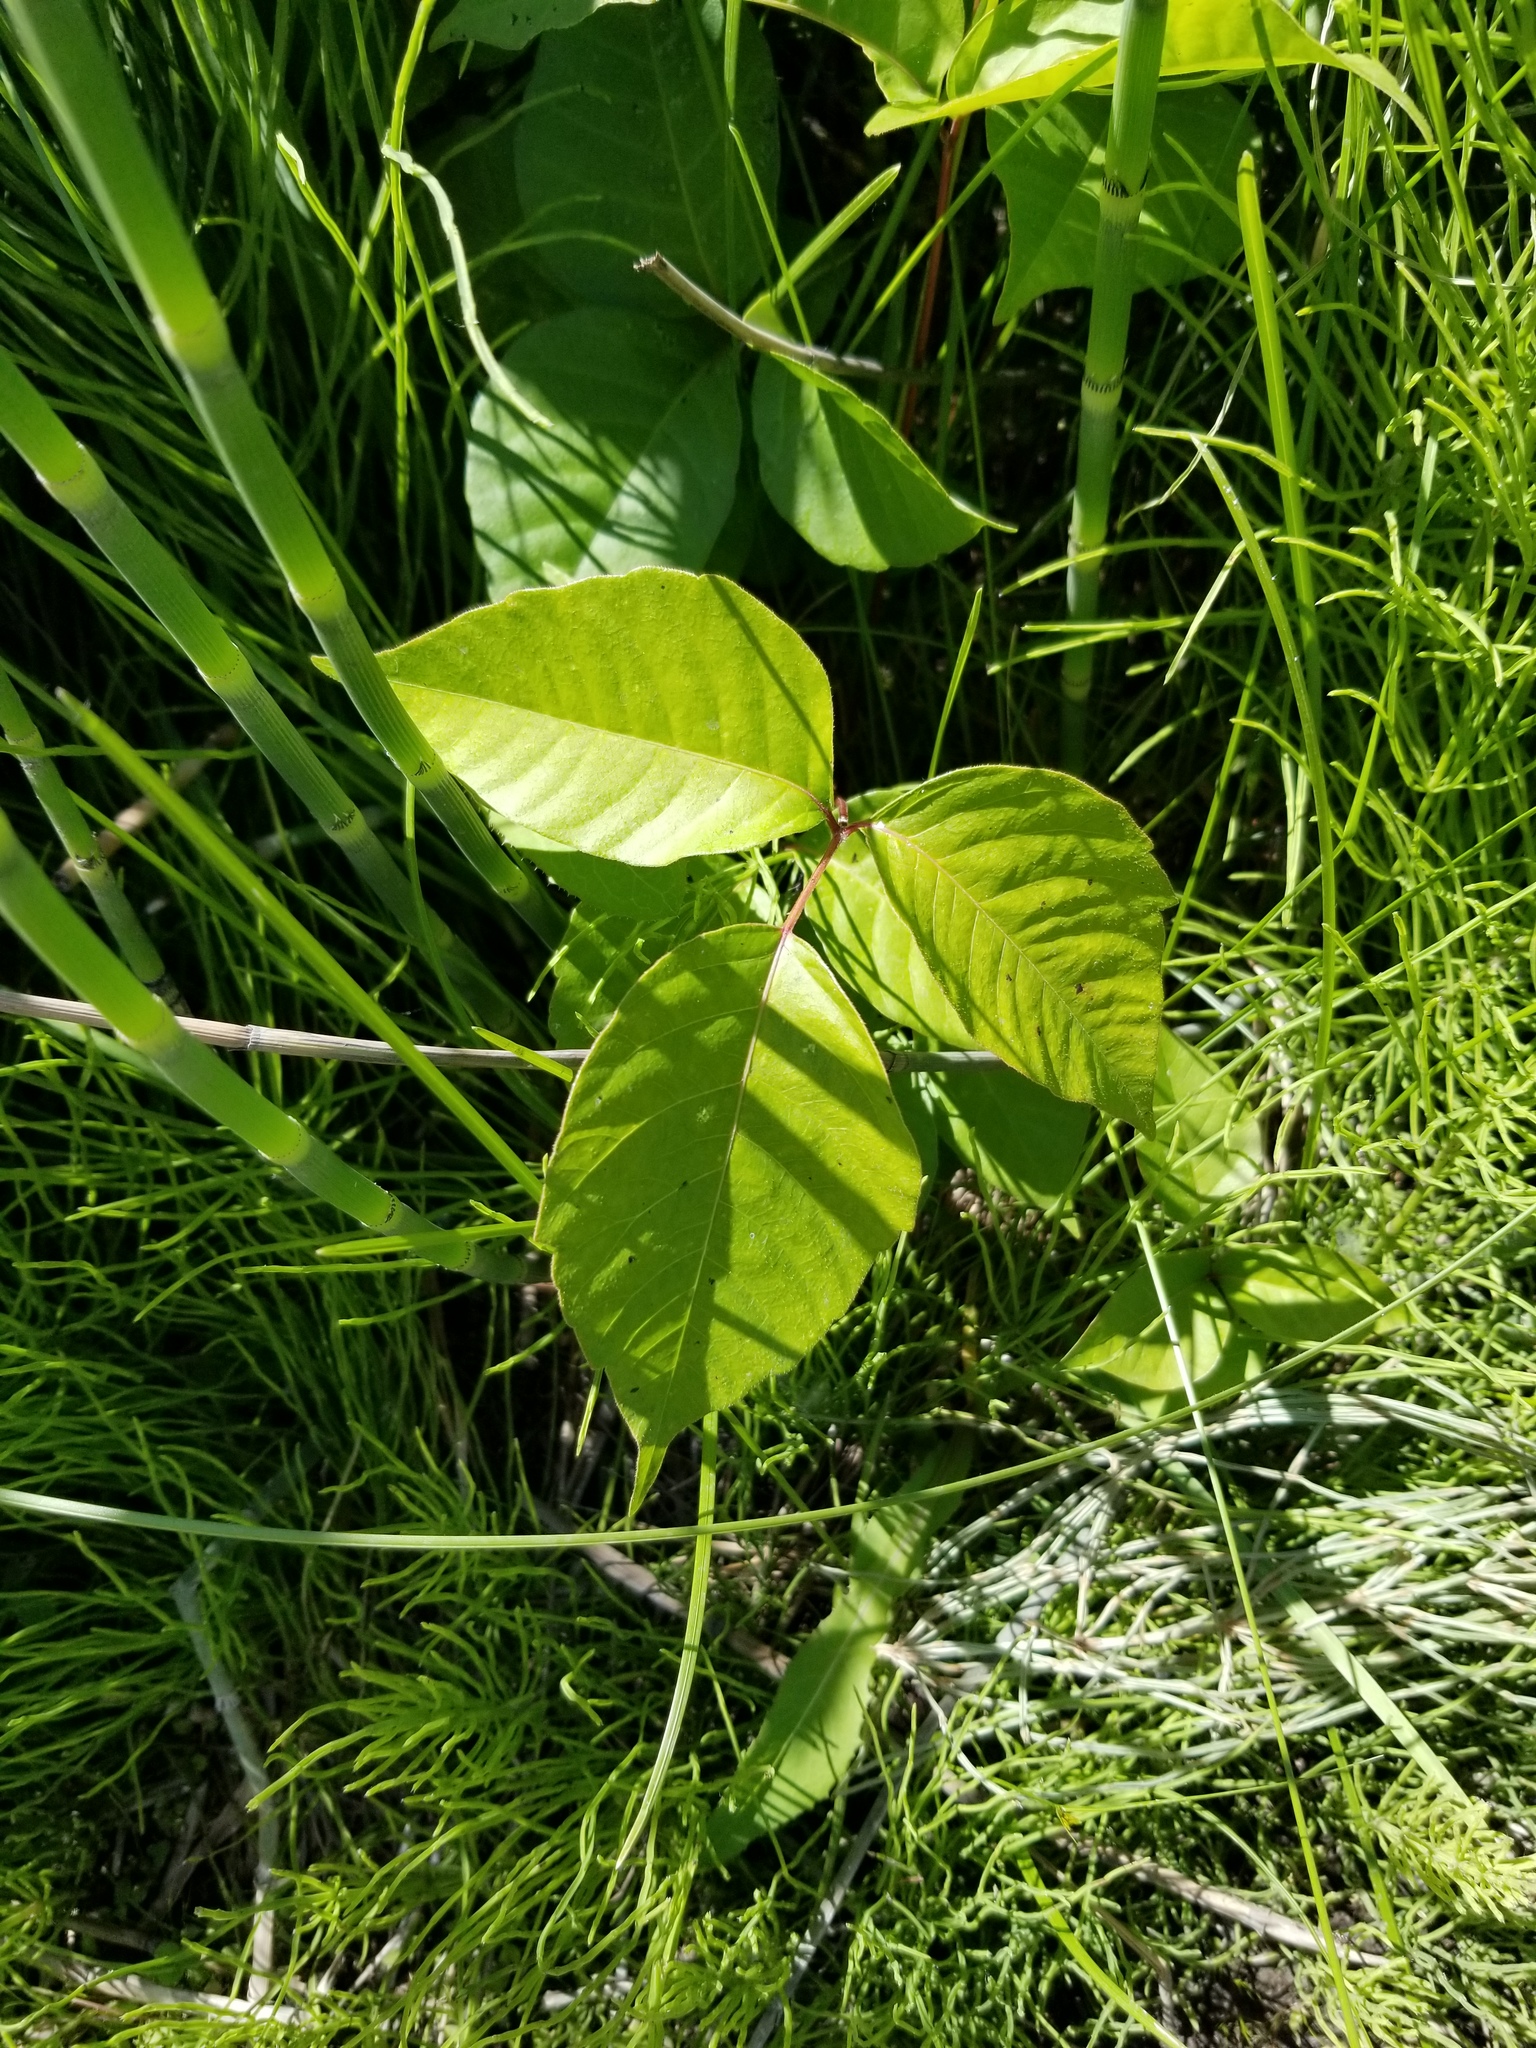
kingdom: Plantae
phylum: Tracheophyta
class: Magnoliopsida
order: Sapindales
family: Anacardiaceae
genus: Toxicodendron
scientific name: Toxicodendron rydbergii
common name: Rydberg's poison-ivy
